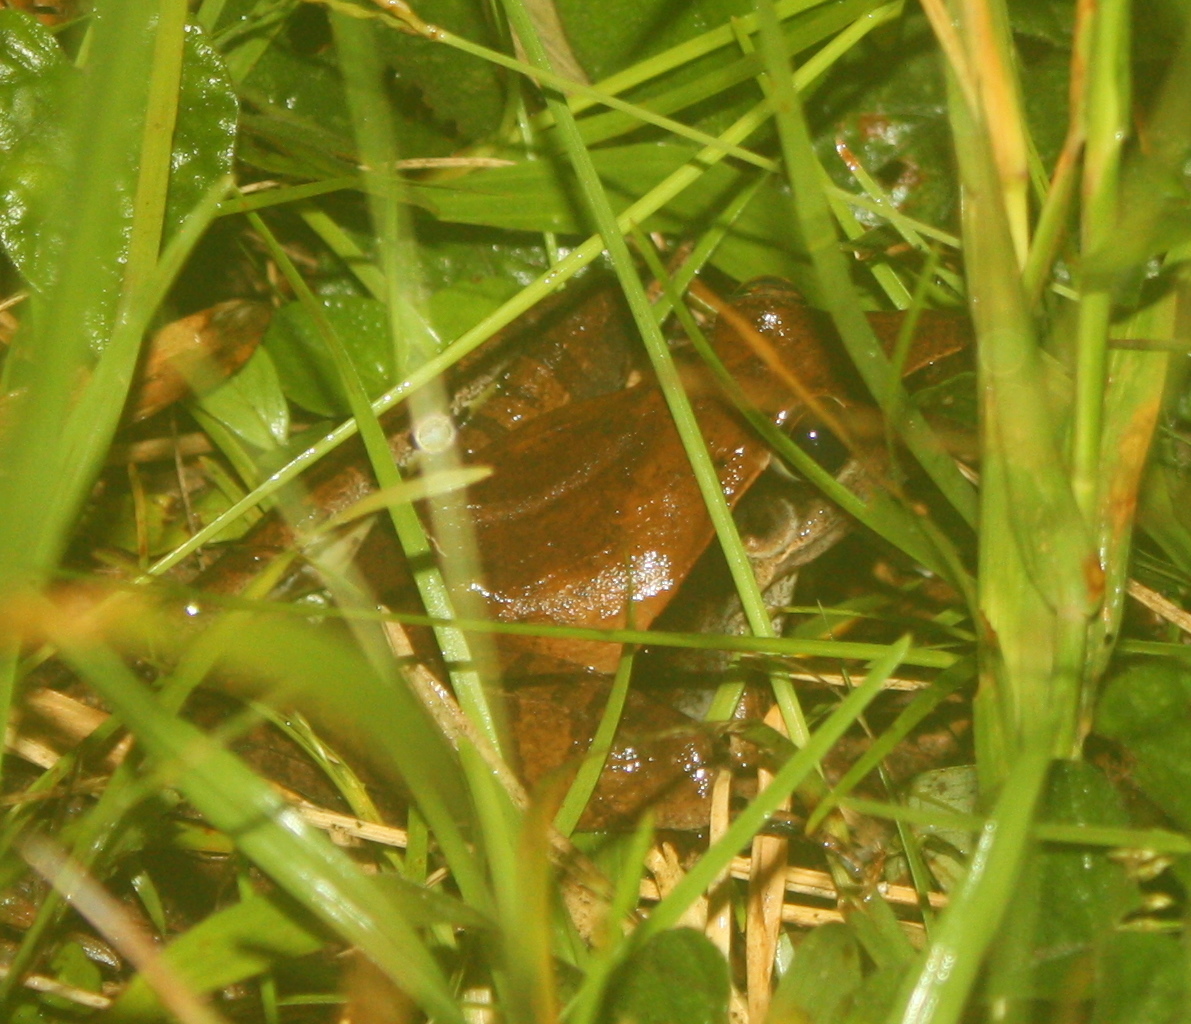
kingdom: Animalia
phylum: Chordata
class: Amphibia
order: Anura
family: Ptychadenidae
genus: Ptychadena
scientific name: Ptychadena longirostris
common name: Snouted grassland frog
